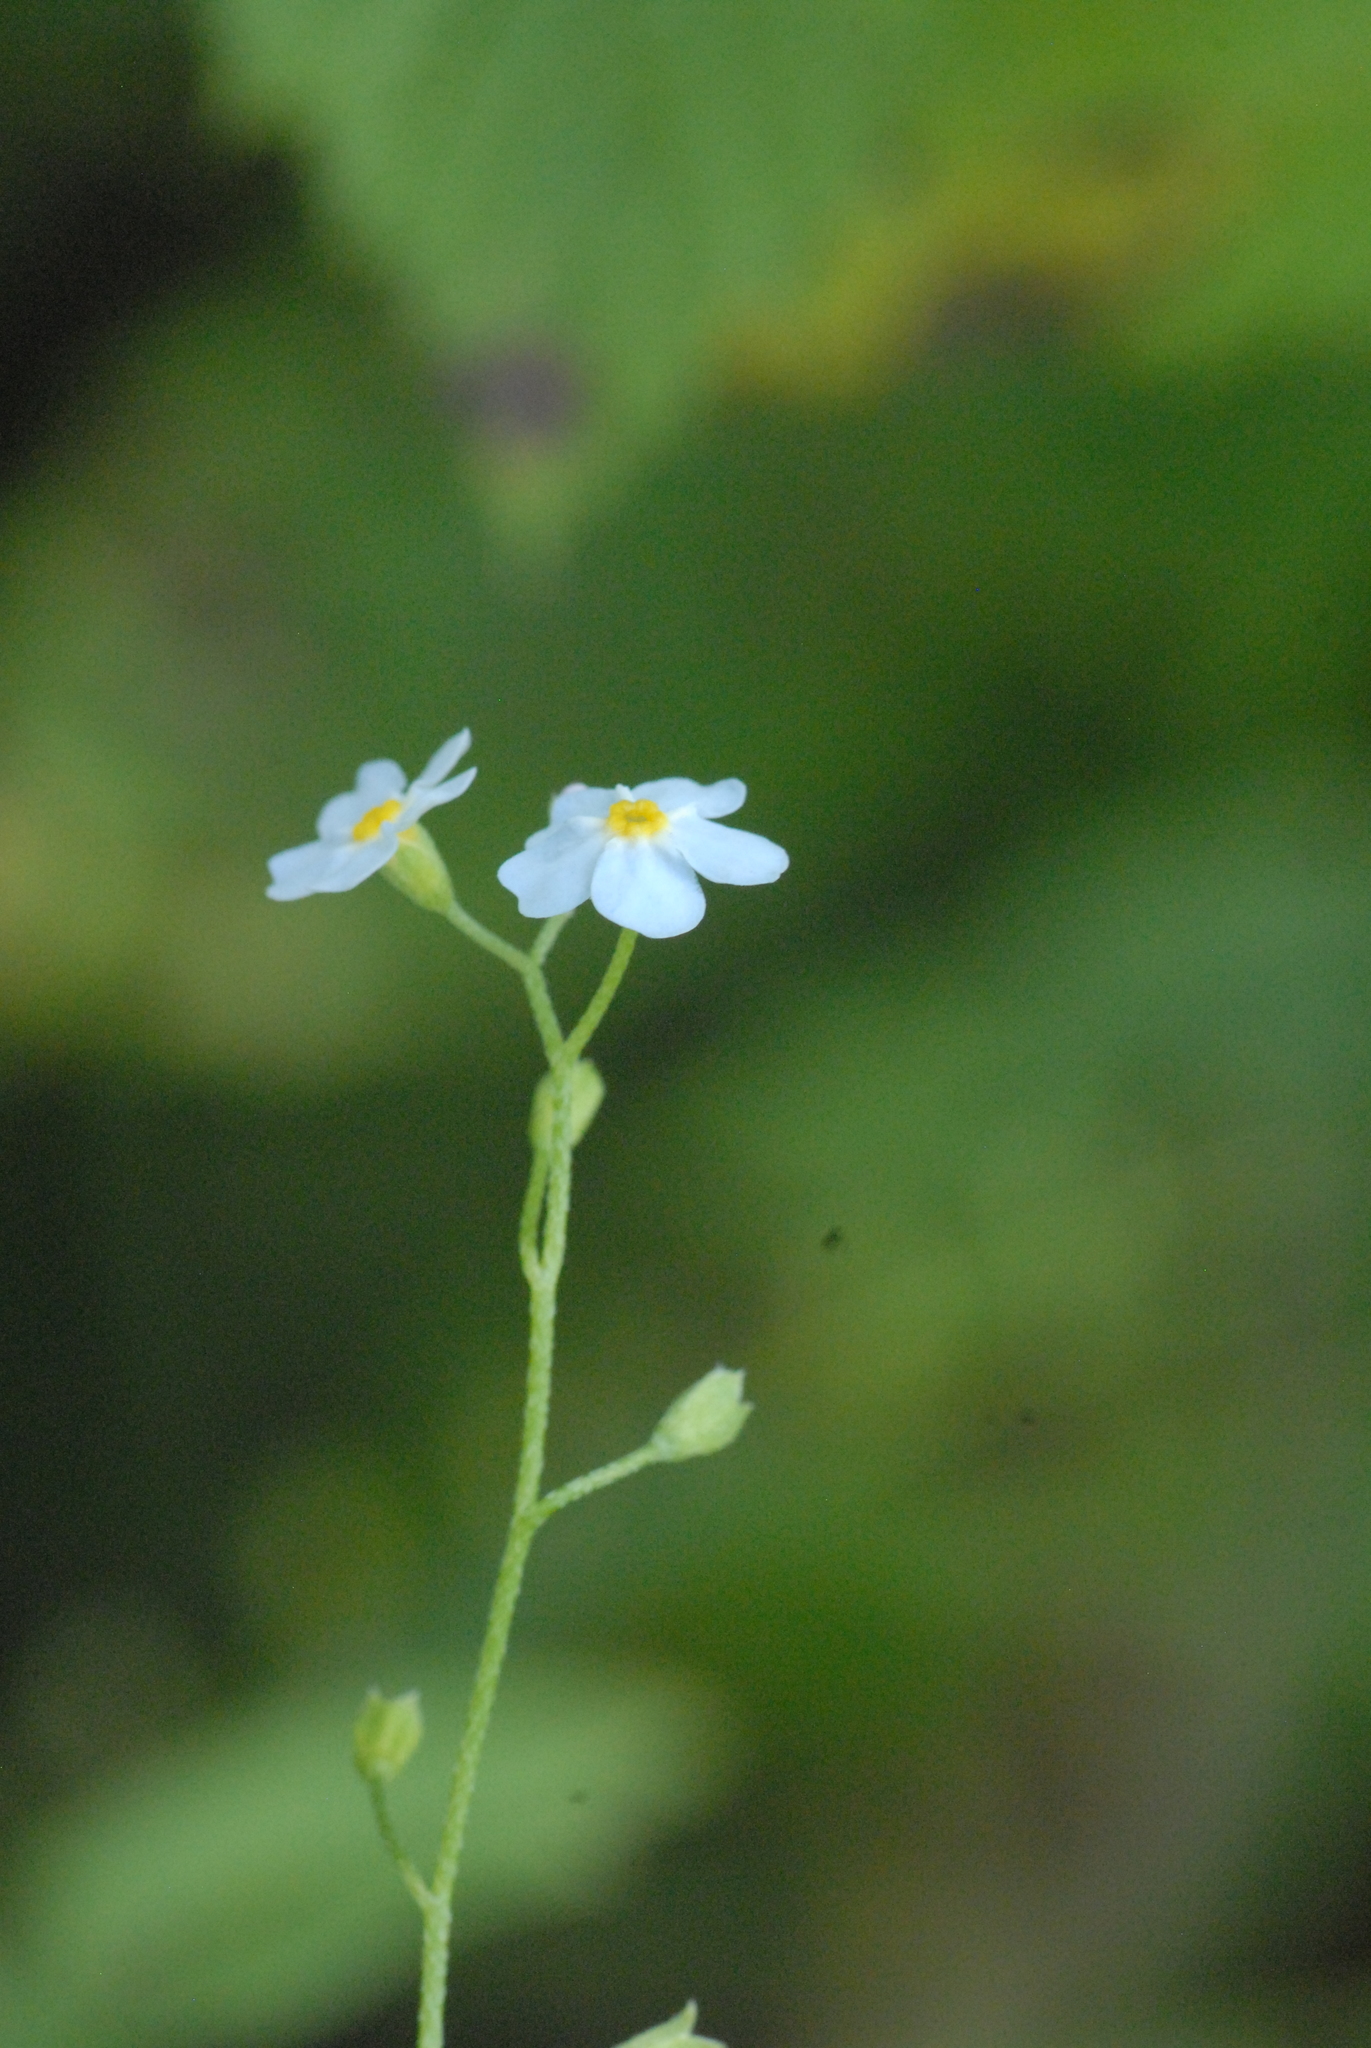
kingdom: Plantae
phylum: Tracheophyta
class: Magnoliopsida
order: Boraginales
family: Boraginaceae
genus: Myosotis
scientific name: Myosotis scorpioides
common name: Water forget-me-not
